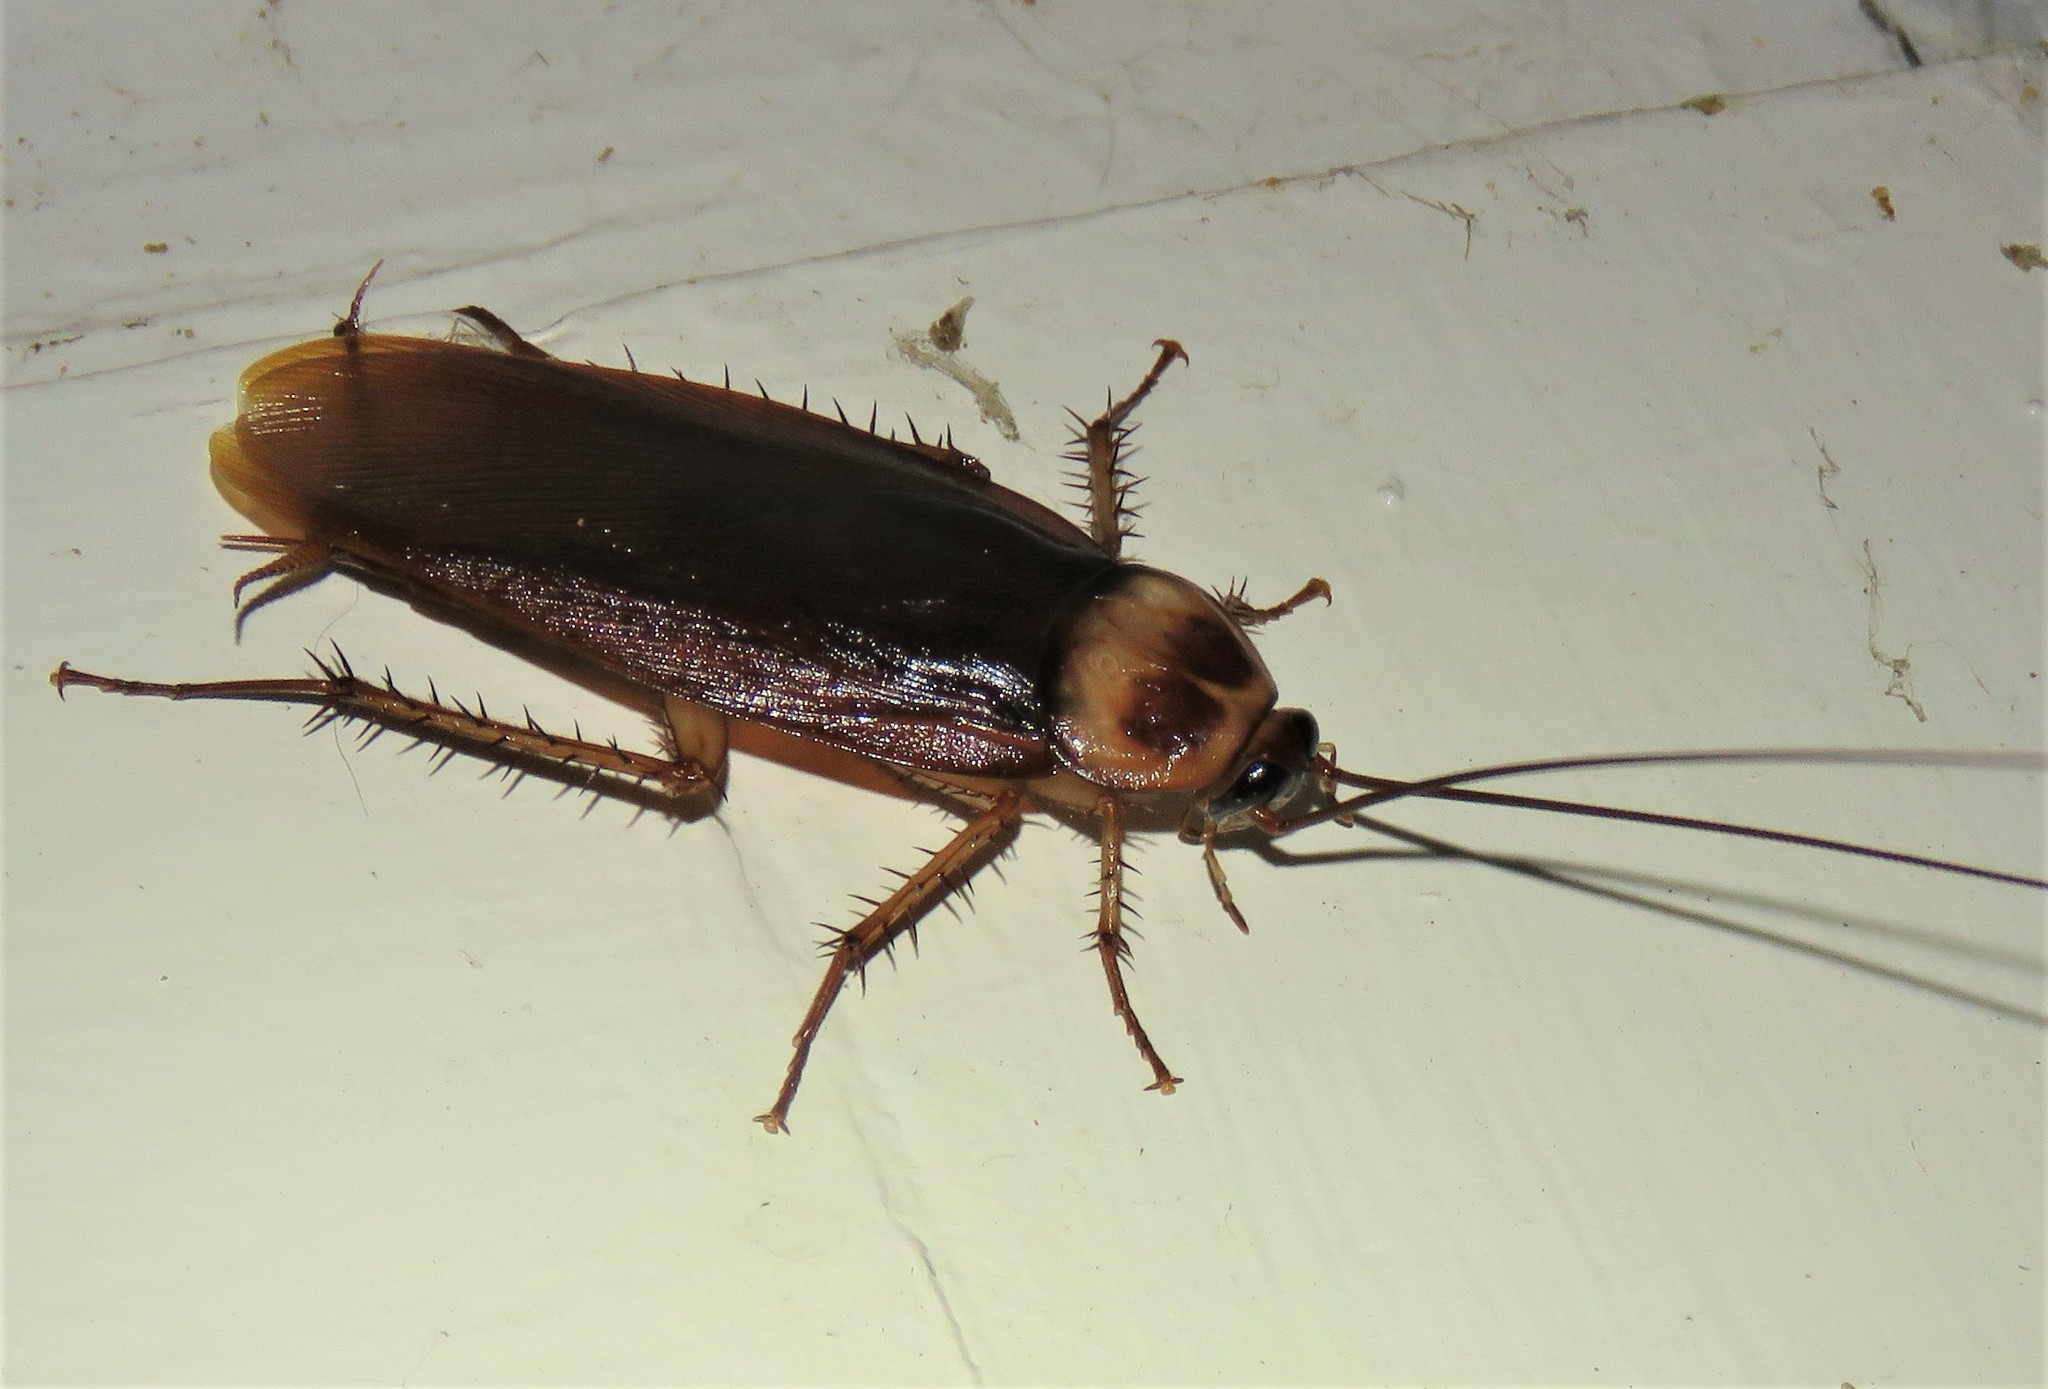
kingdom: Animalia
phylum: Arthropoda
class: Insecta
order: Blattodea
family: Blattidae
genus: Periplaneta
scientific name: Periplaneta americana
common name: American cockroach
